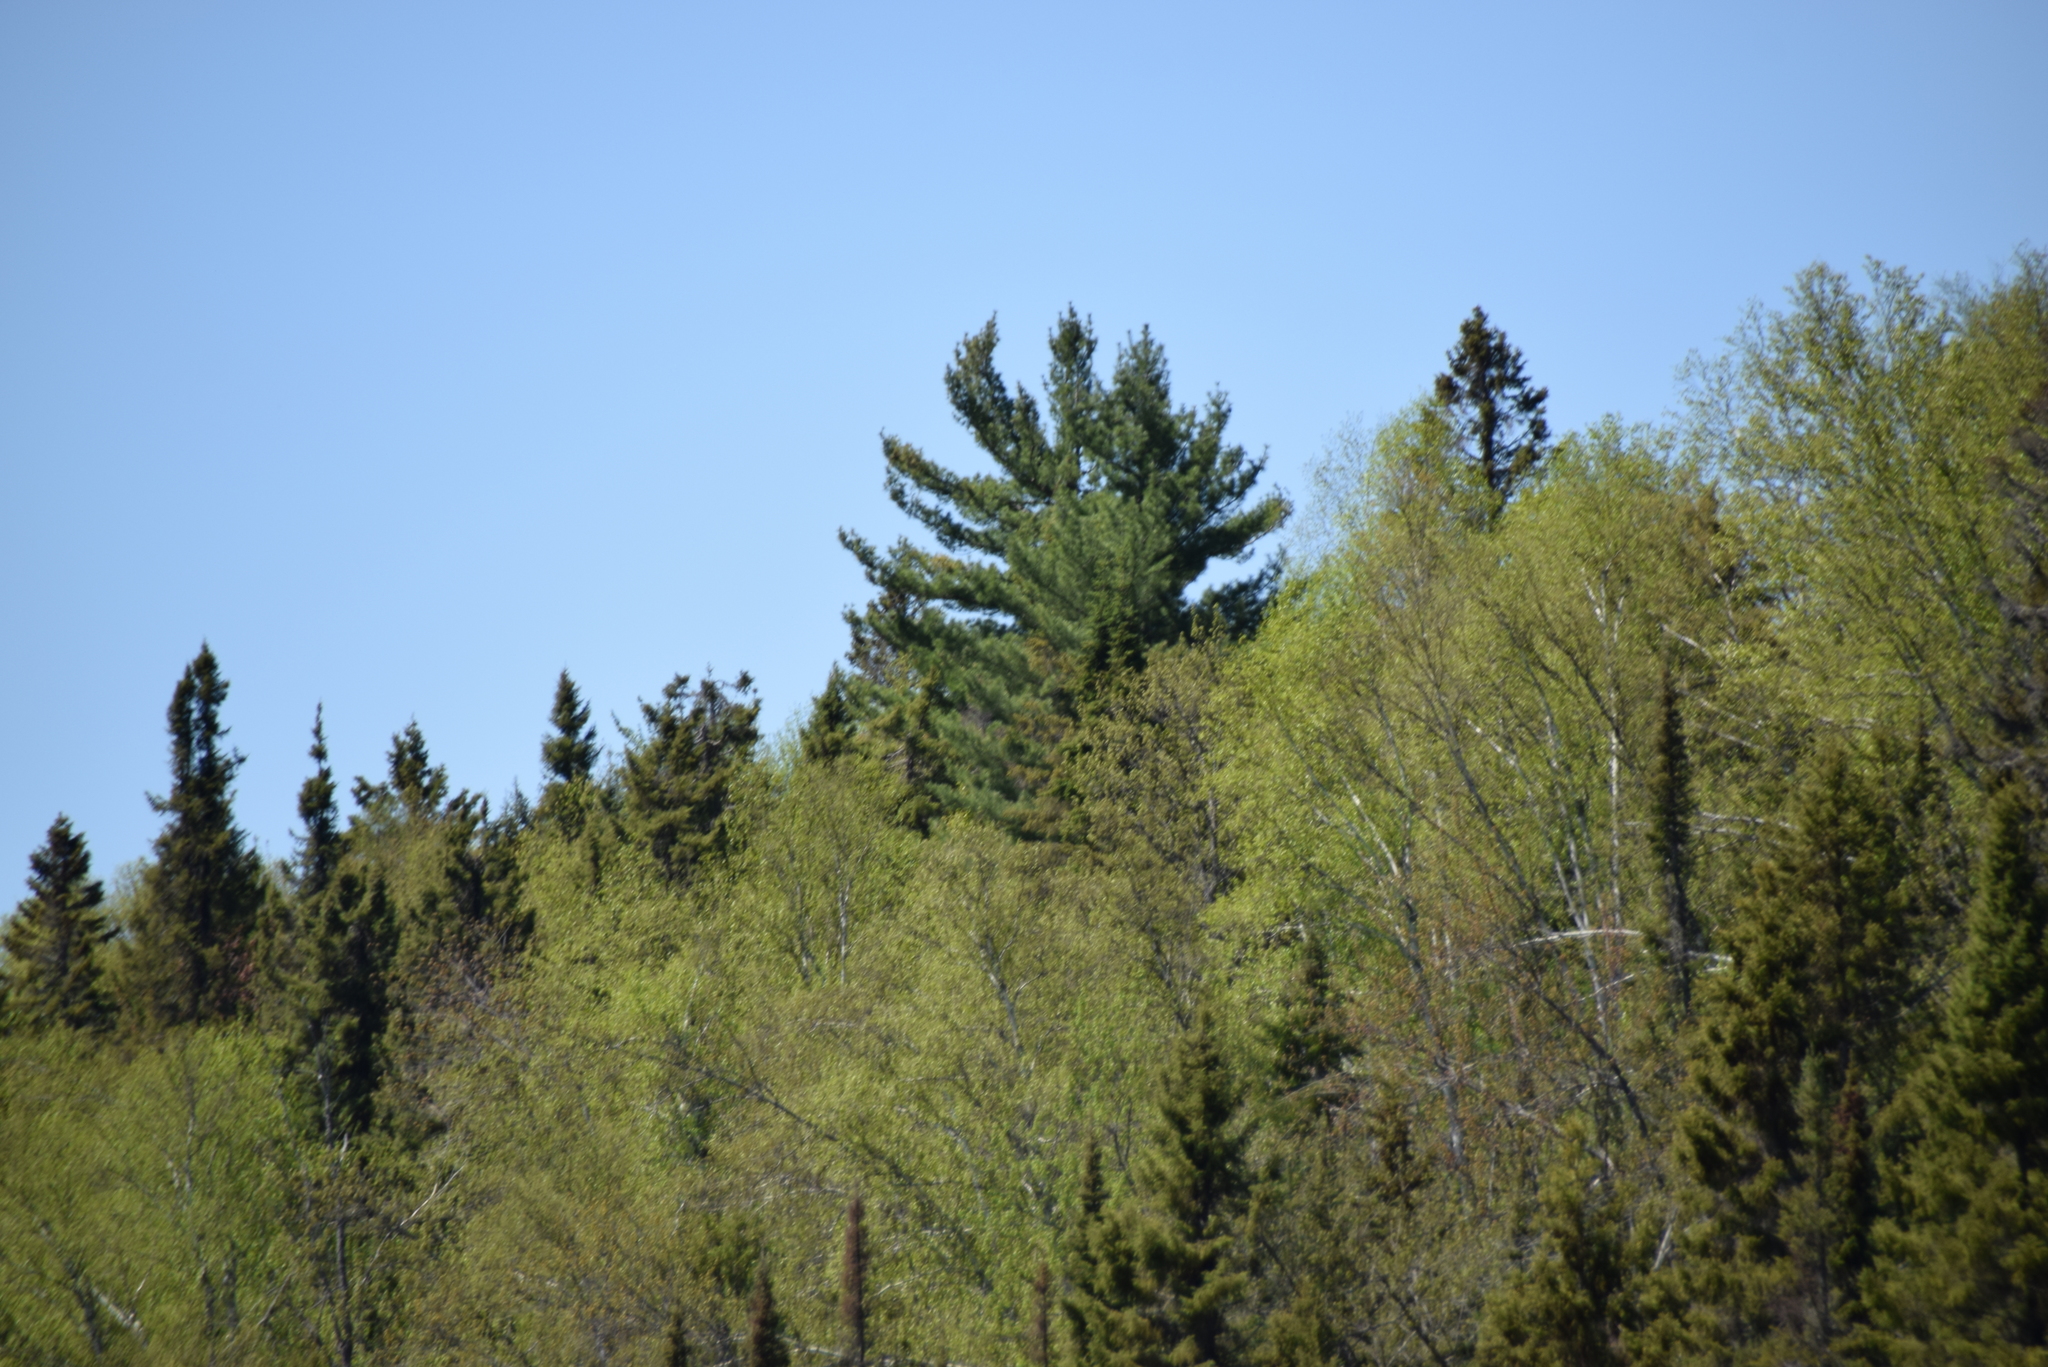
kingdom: Plantae
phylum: Tracheophyta
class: Pinopsida
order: Pinales
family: Pinaceae
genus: Pinus
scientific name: Pinus strobus
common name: Weymouth pine
